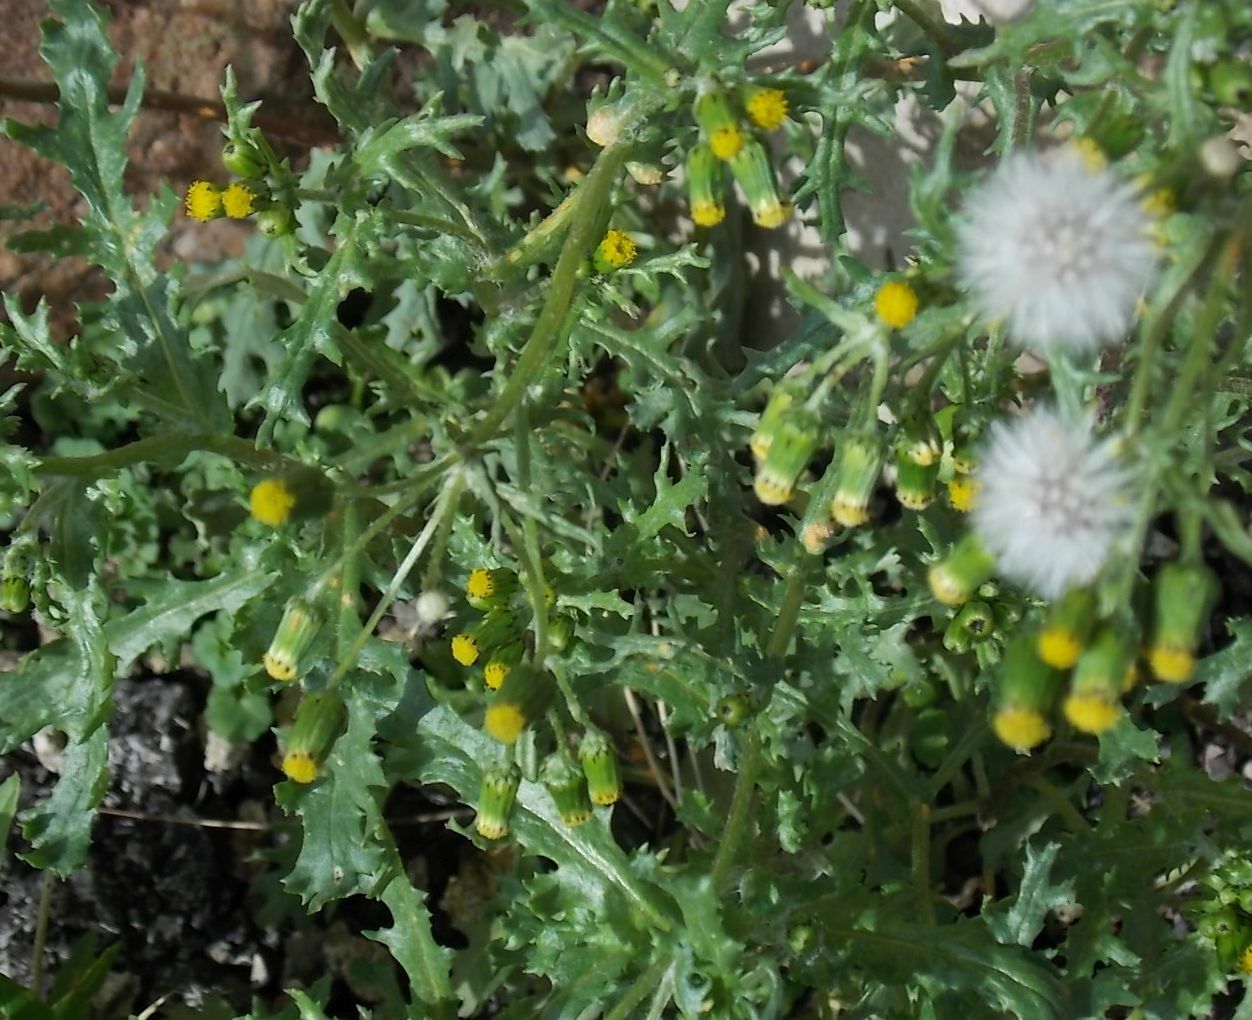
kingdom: Plantae
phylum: Tracheophyta
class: Magnoliopsida
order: Asterales
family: Asteraceae
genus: Senecio
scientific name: Senecio vulgaris
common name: Old-man-in-the-spring
